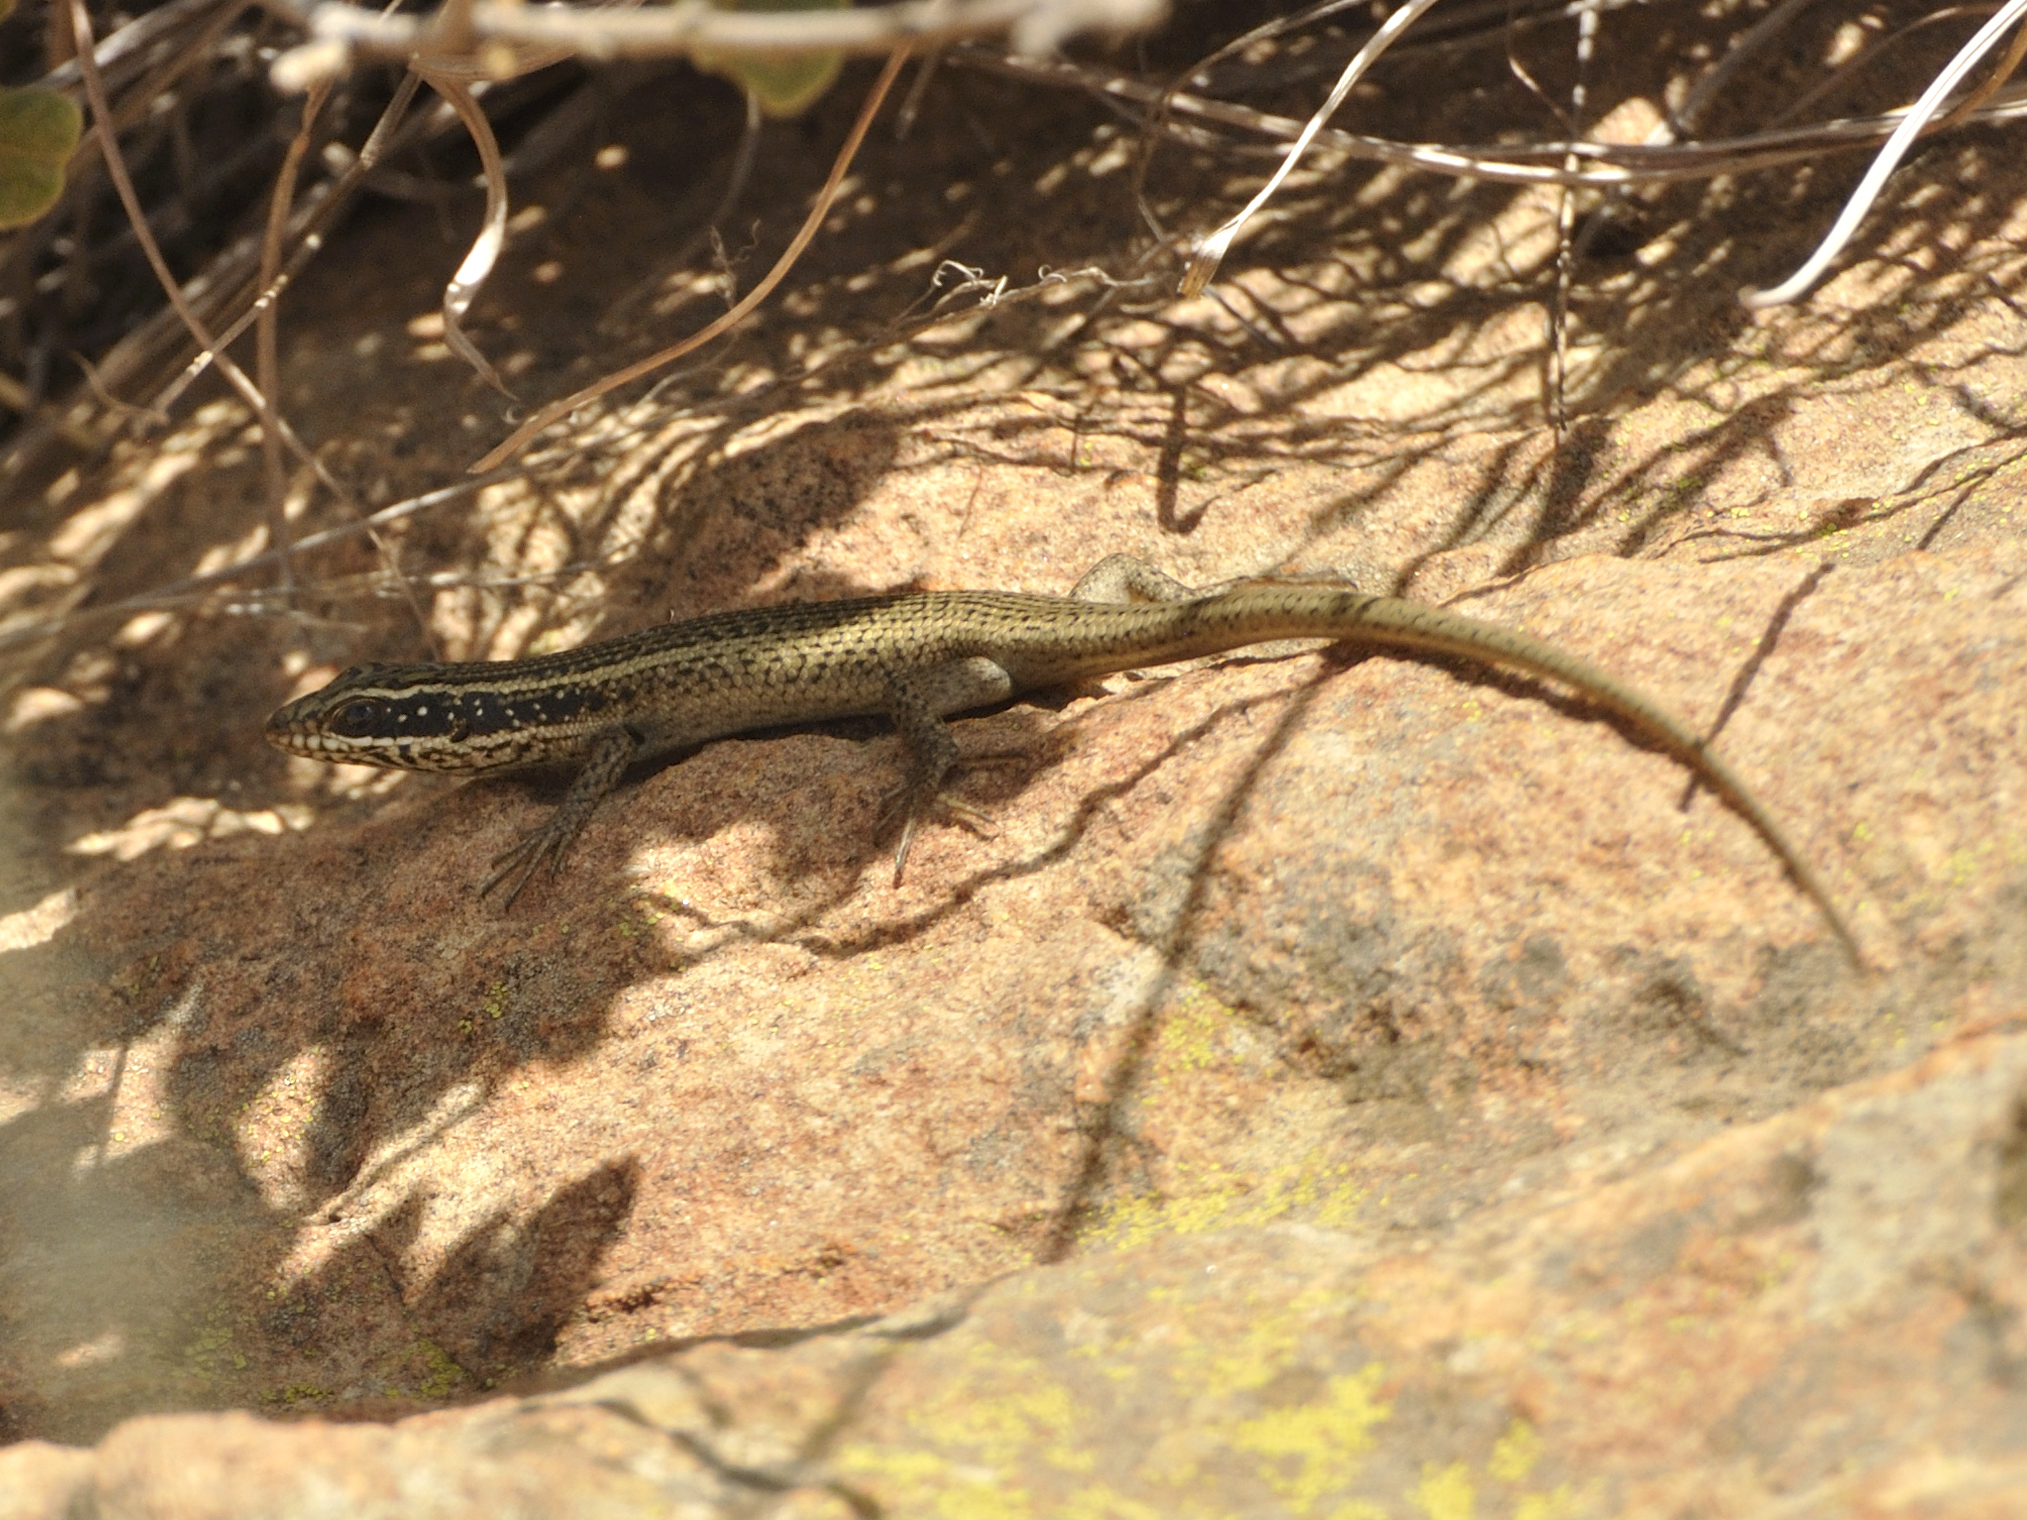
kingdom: Animalia
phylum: Chordata
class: Squamata
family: Scincidae
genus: Trachylepis
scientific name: Trachylepis punctatissima
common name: Montane speckled skink
